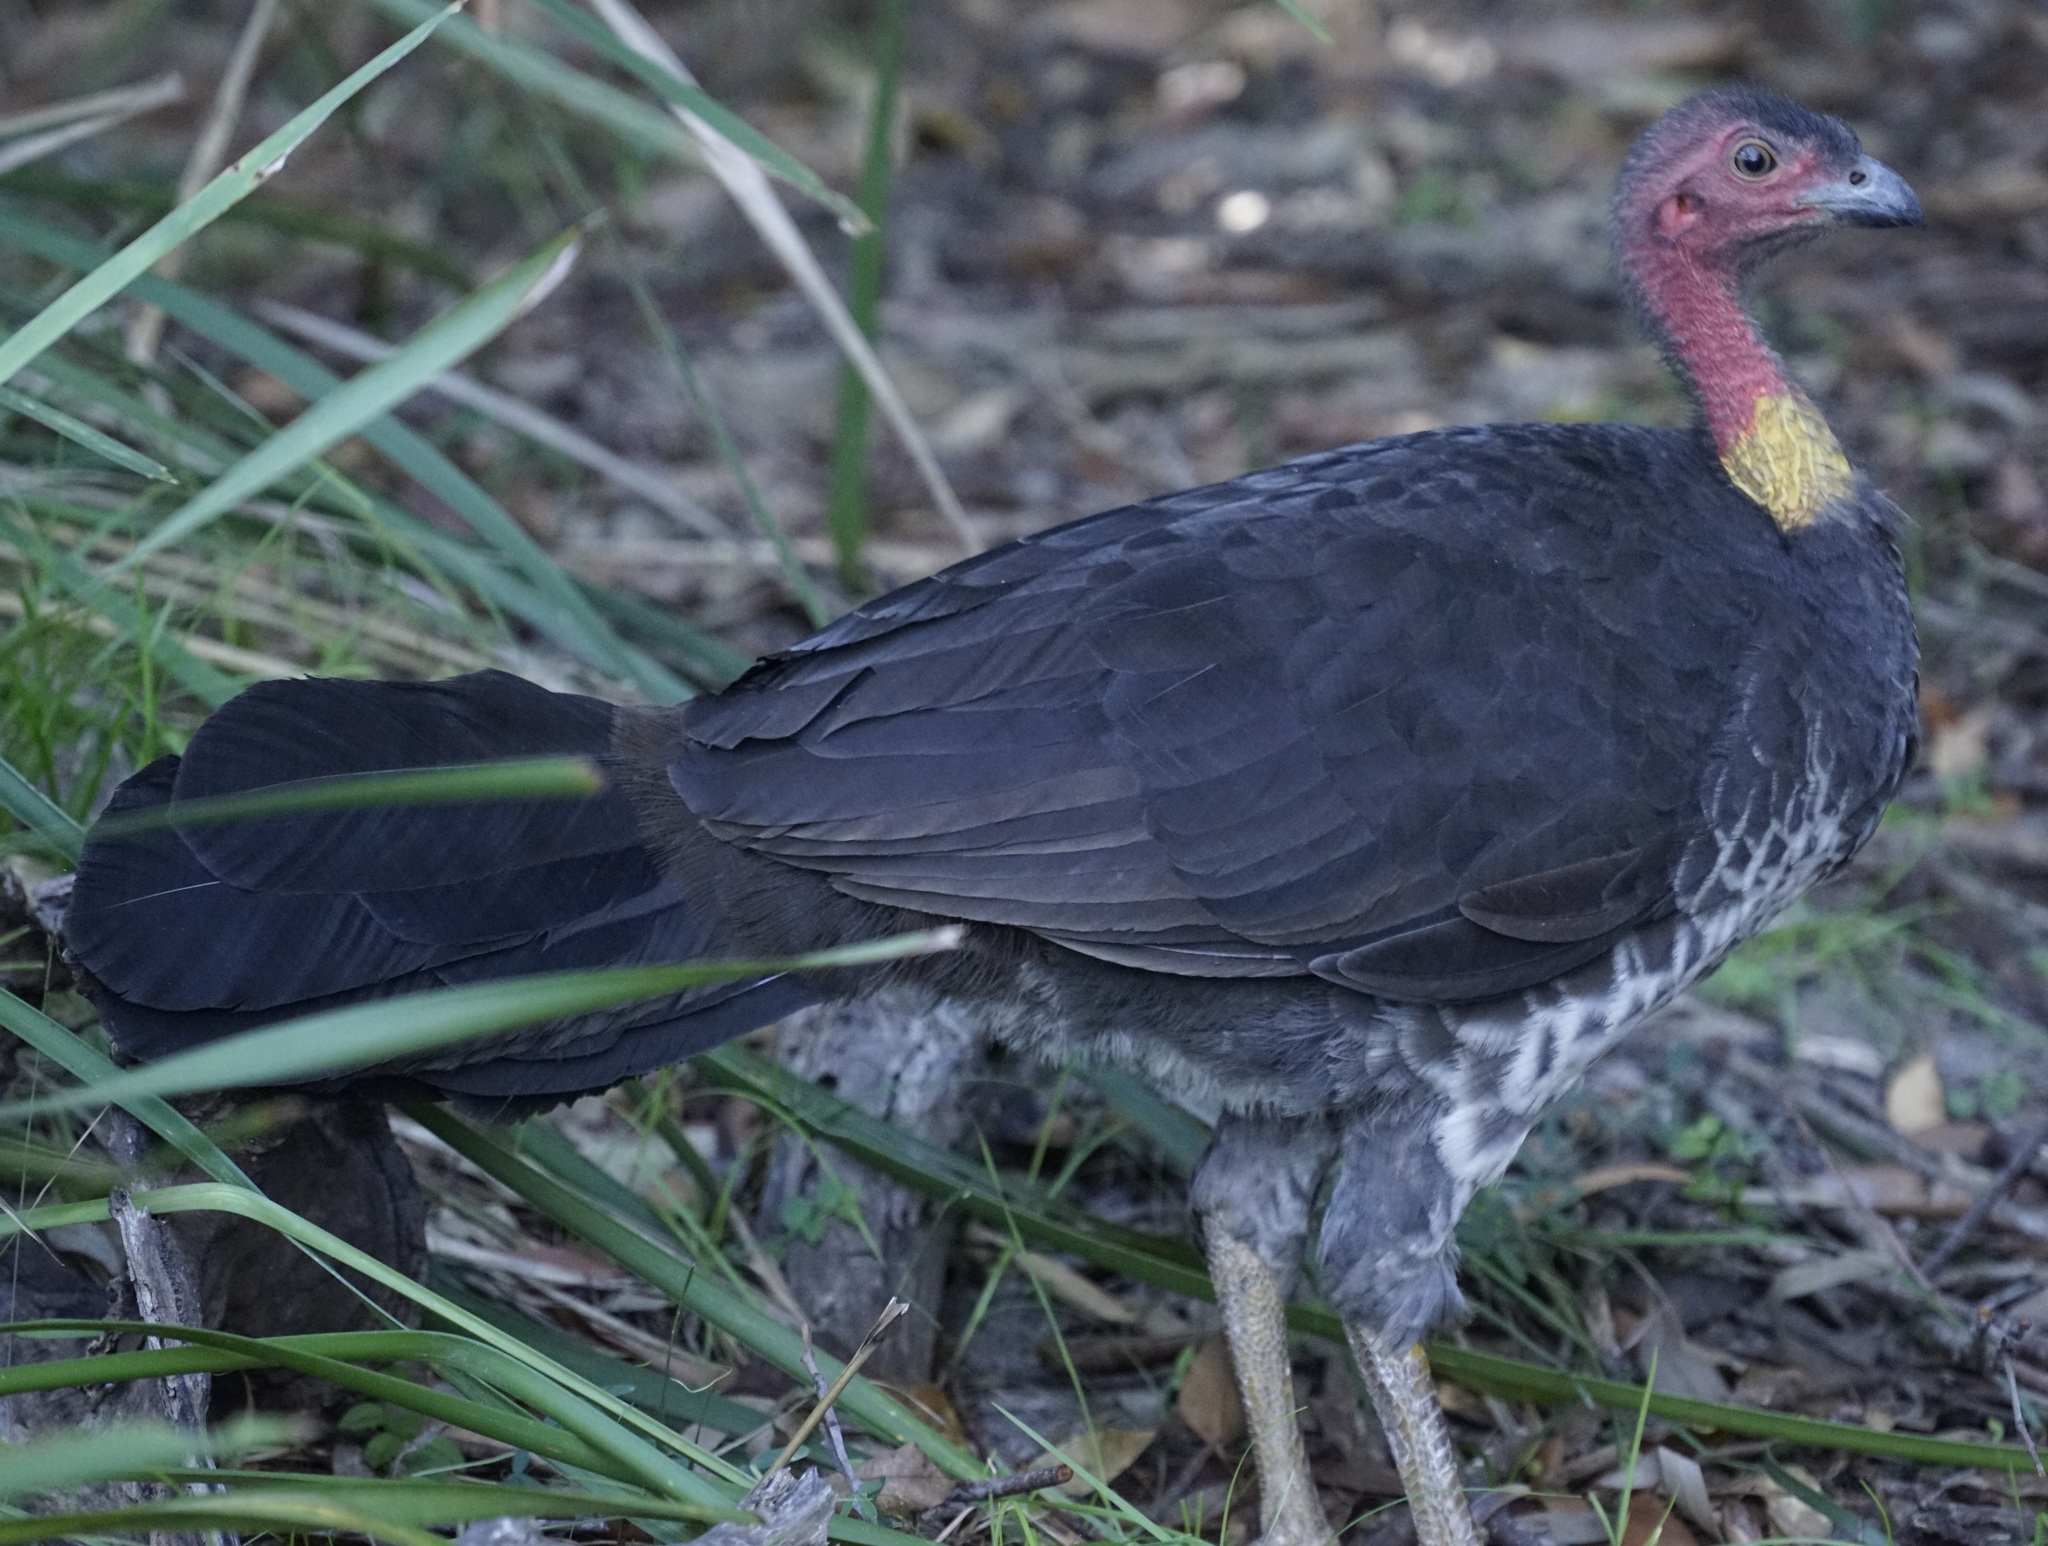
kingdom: Animalia
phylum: Chordata
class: Aves
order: Galliformes
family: Megapodiidae
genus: Alectura
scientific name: Alectura lathami
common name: Australian brushturkey
